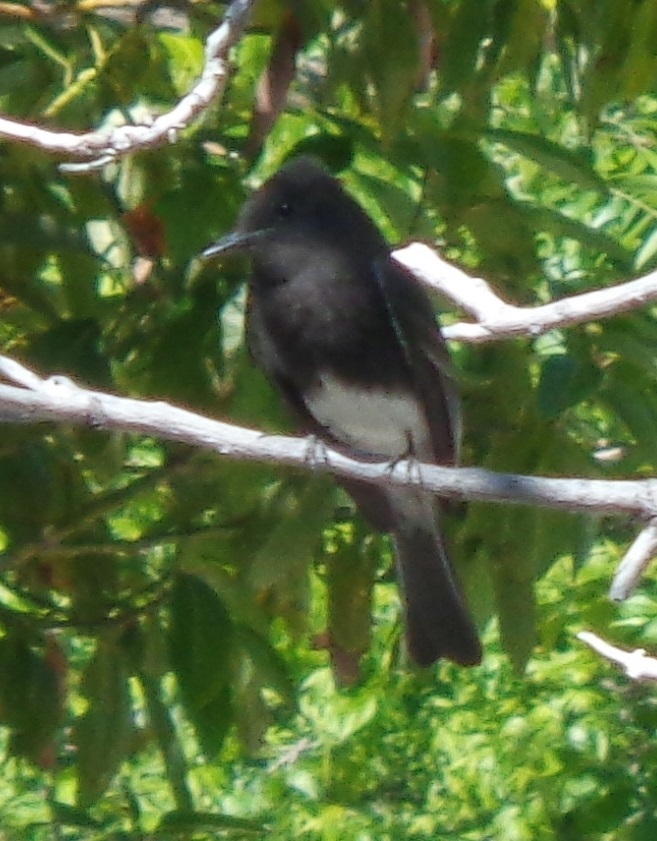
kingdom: Animalia
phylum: Chordata
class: Aves
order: Passeriformes
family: Tyrannidae
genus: Sayornis
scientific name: Sayornis nigricans
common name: Black phoebe
